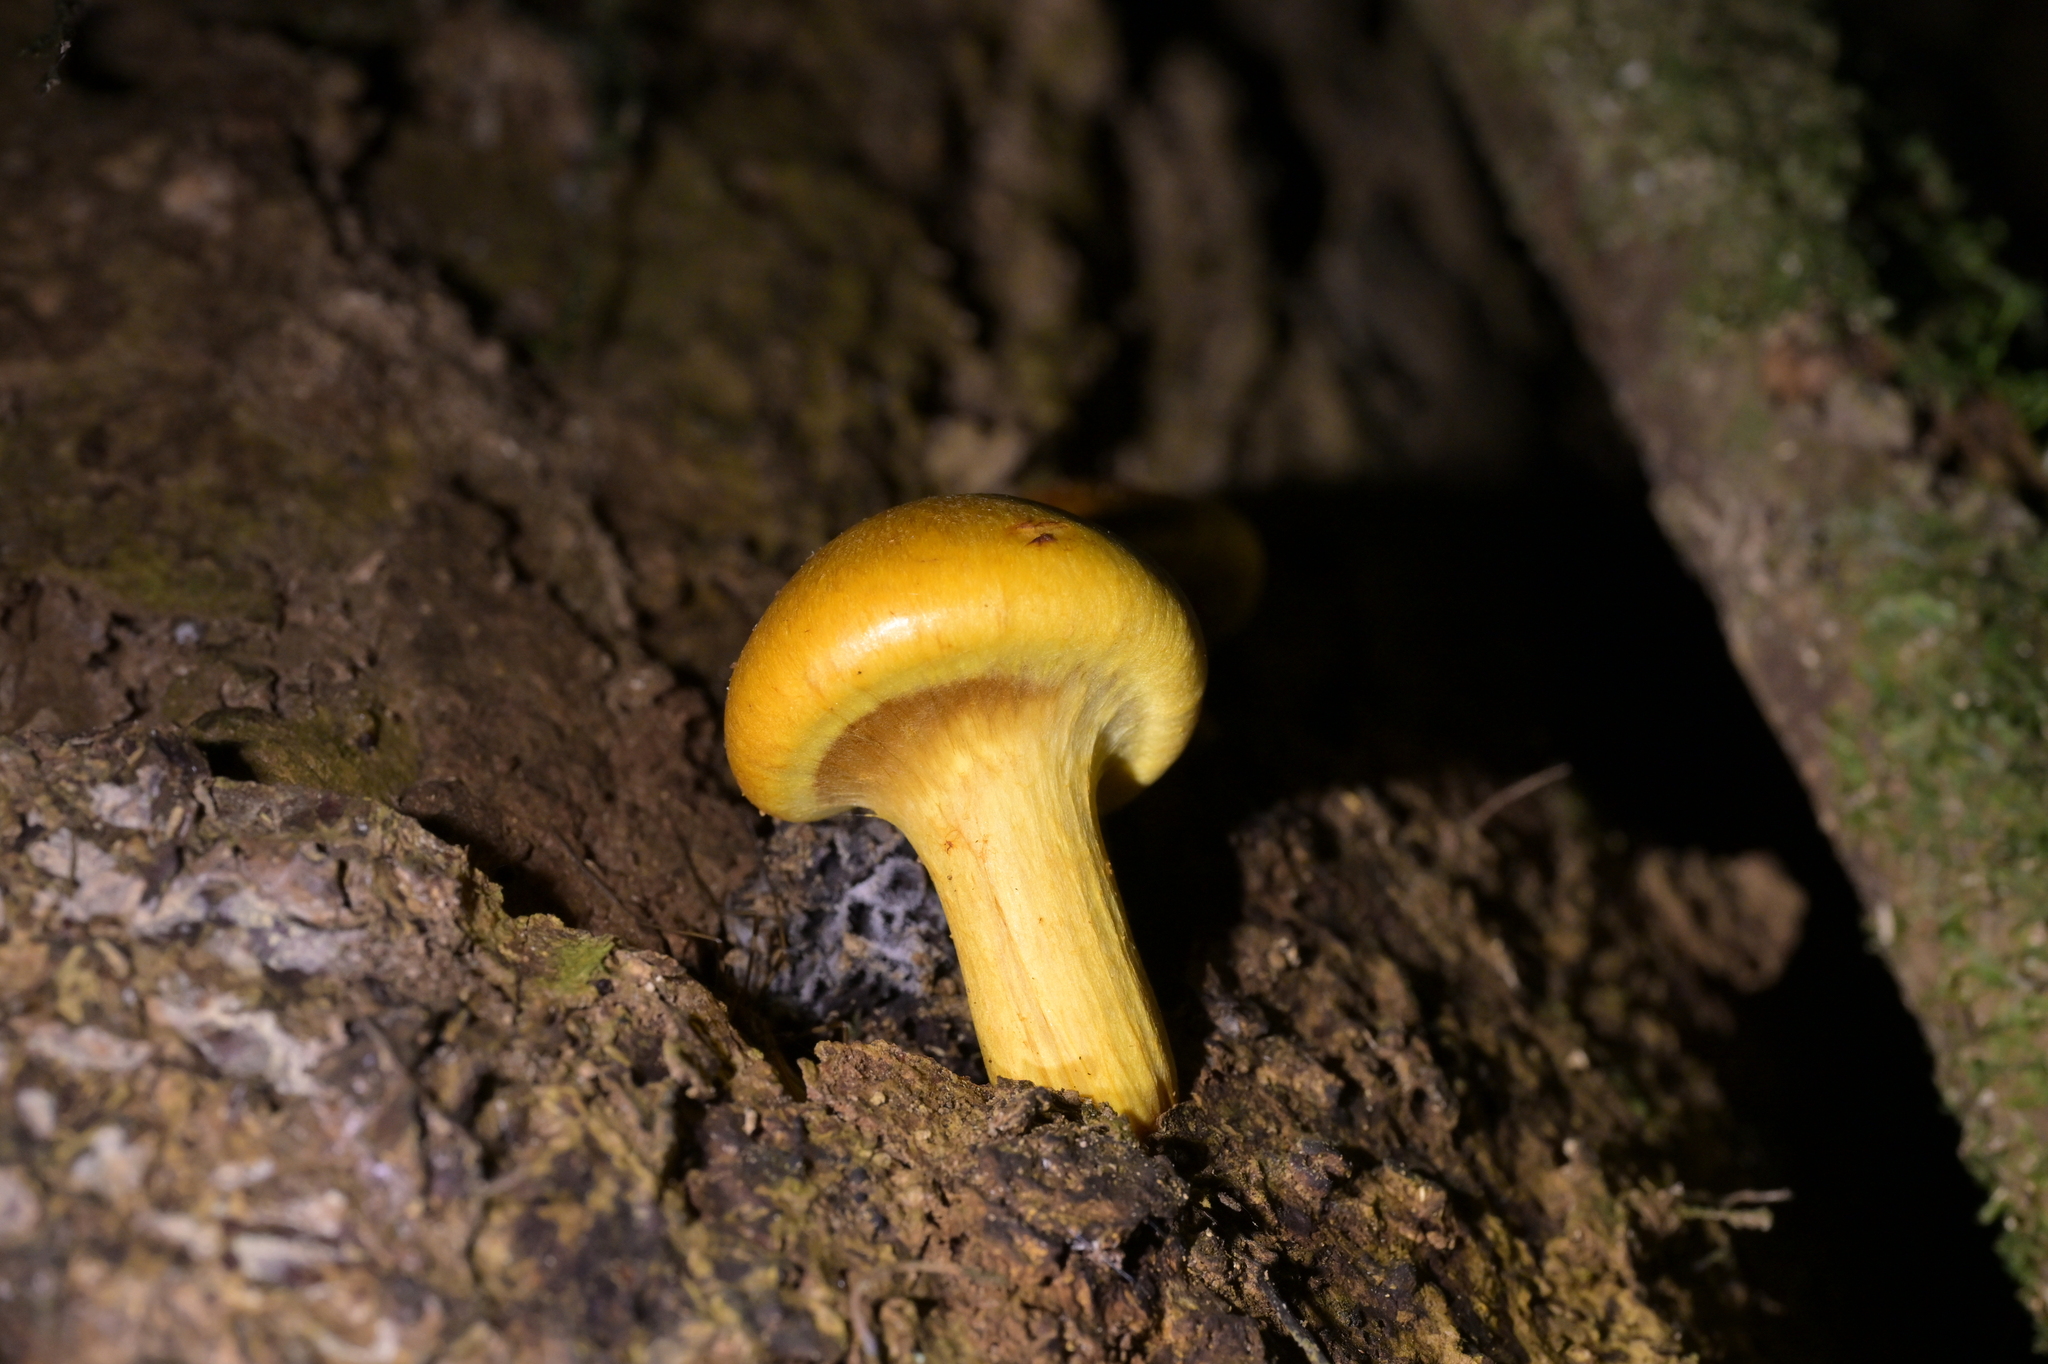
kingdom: Fungi
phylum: Basidiomycota
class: Agaricomycetes
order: Agaricales
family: Hymenogastraceae
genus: Gymnopilus
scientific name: Gymnopilus junonius
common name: Spectacular rustgill
